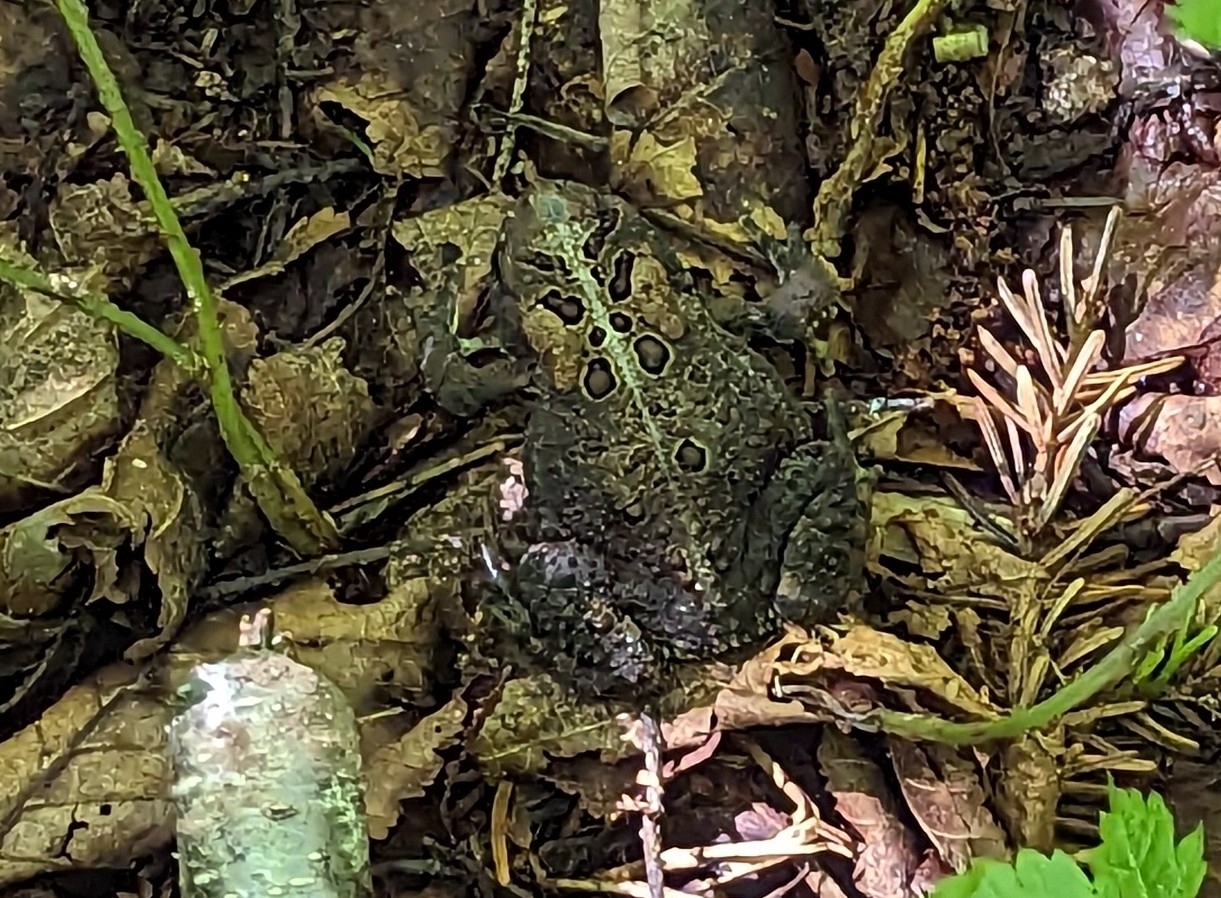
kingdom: Animalia
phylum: Chordata
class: Amphibia
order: Anura
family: Bufonidae
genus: Anaxyrus
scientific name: Anaxyrus americanus
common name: American toad
